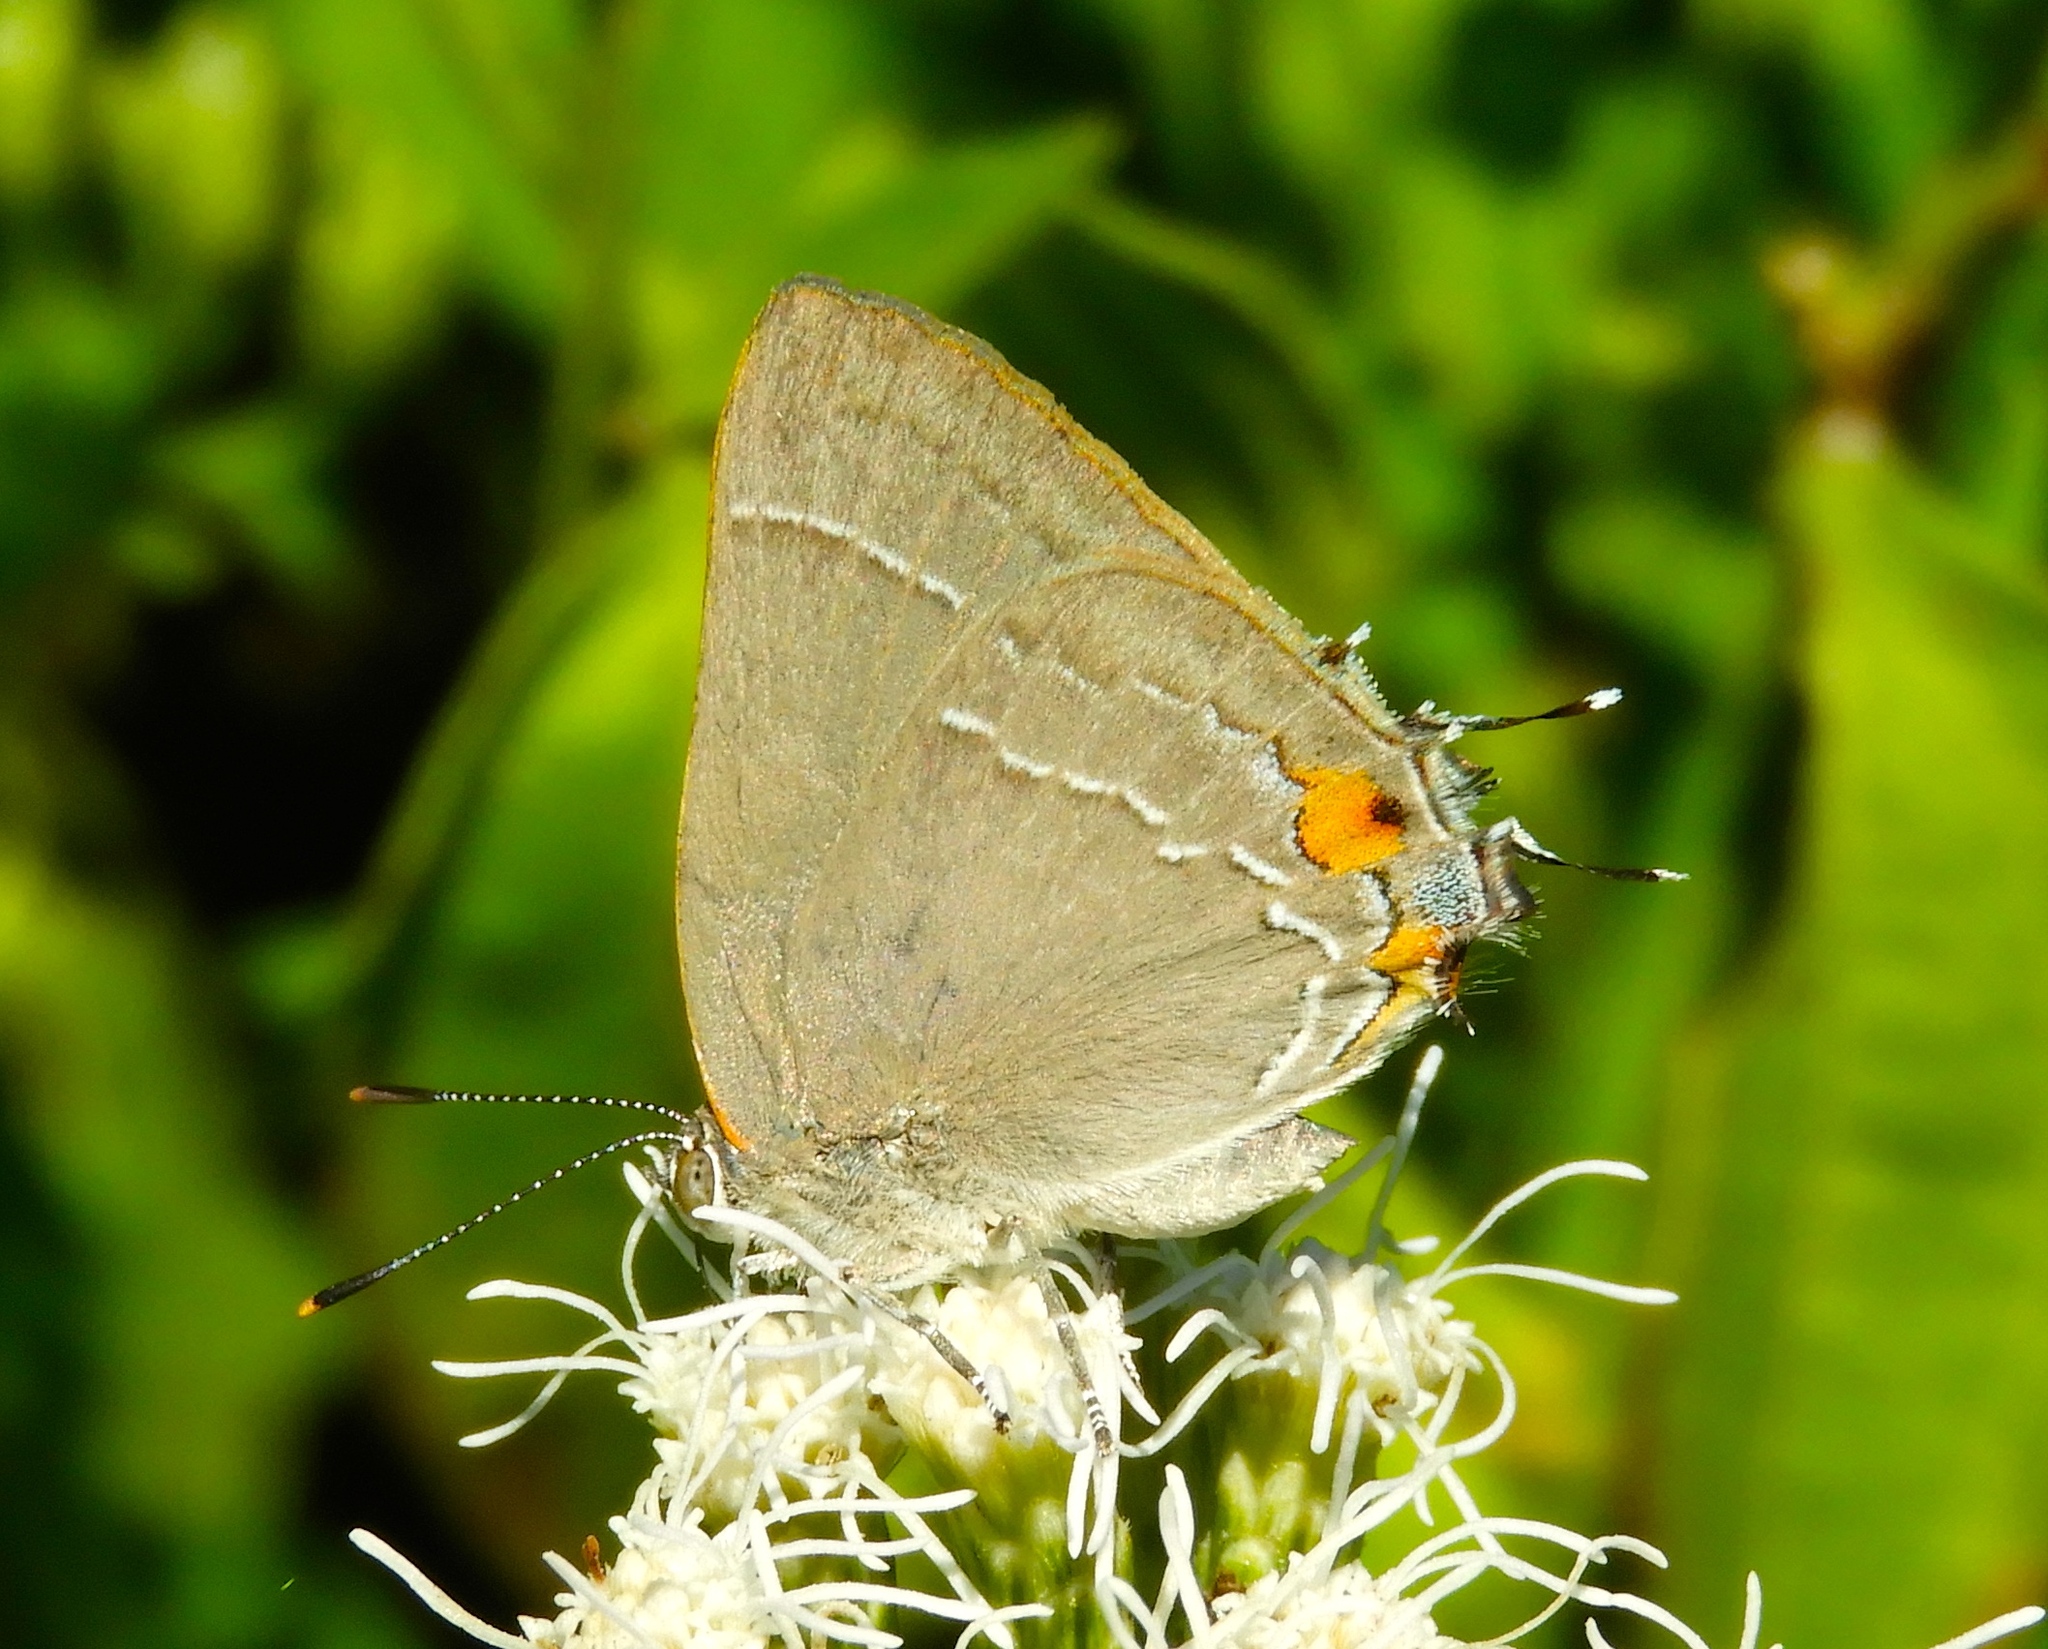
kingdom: Animalia
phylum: Arthropoda
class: Insecta
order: Lepidoptera
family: Lycaenidae
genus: Rekoa
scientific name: Rekoa
